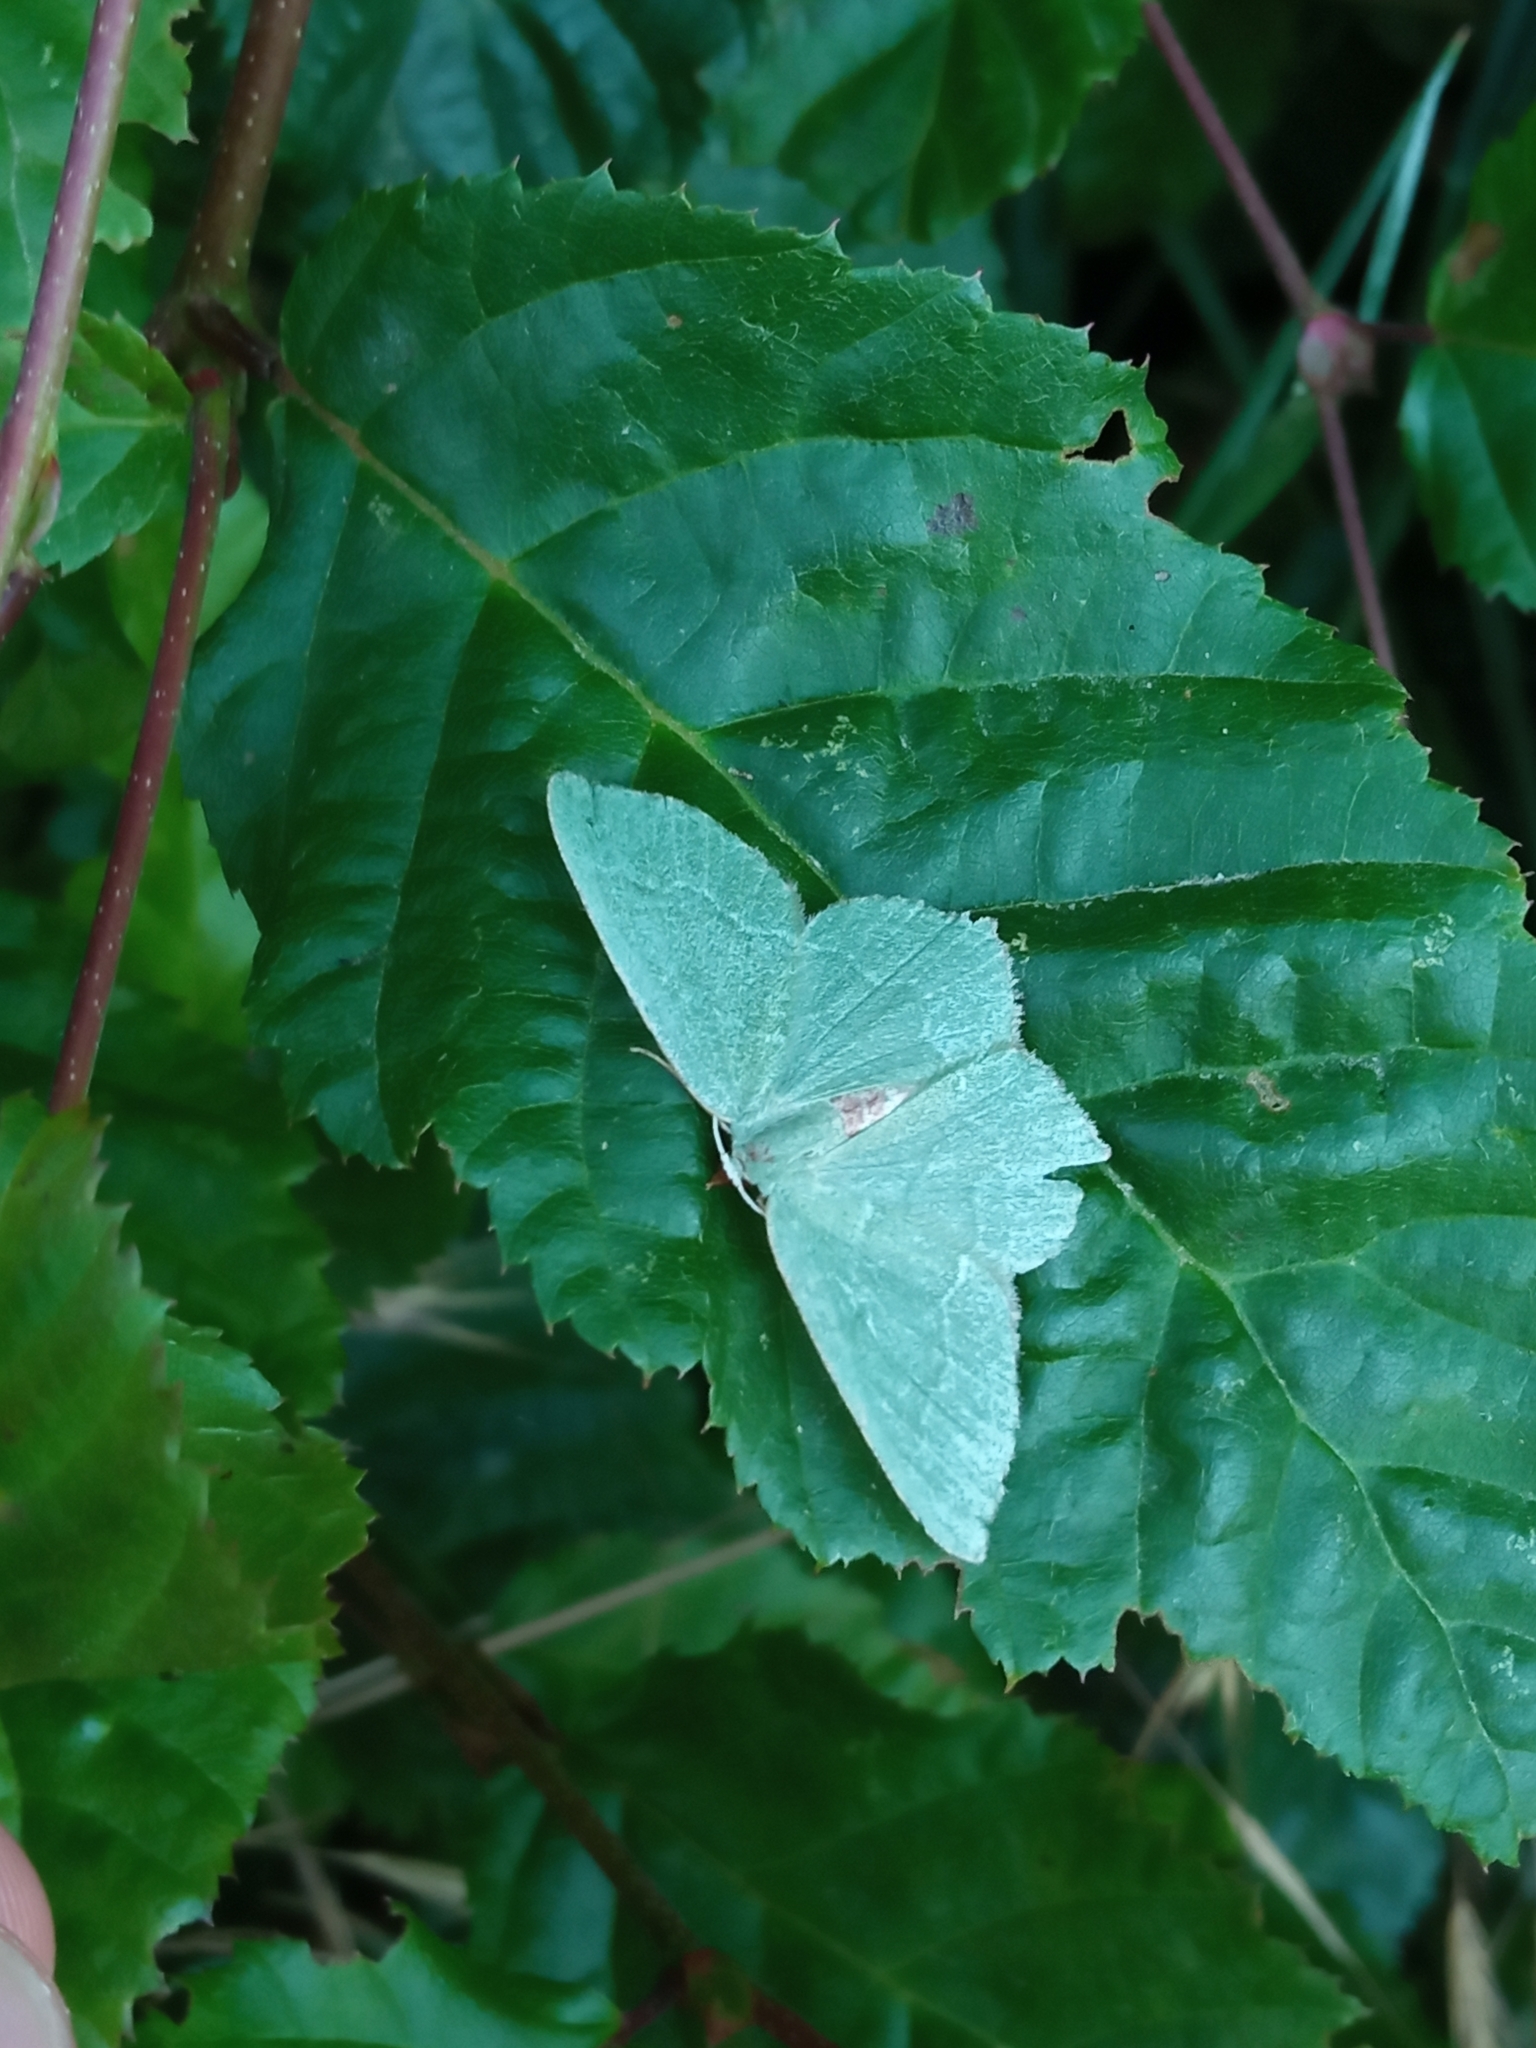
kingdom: Animalia
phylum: Arthropoda
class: Insecta
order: Lepidoptera
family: Geometridae
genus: Hemithea
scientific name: Hemithea aestivaria
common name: Common emerald
